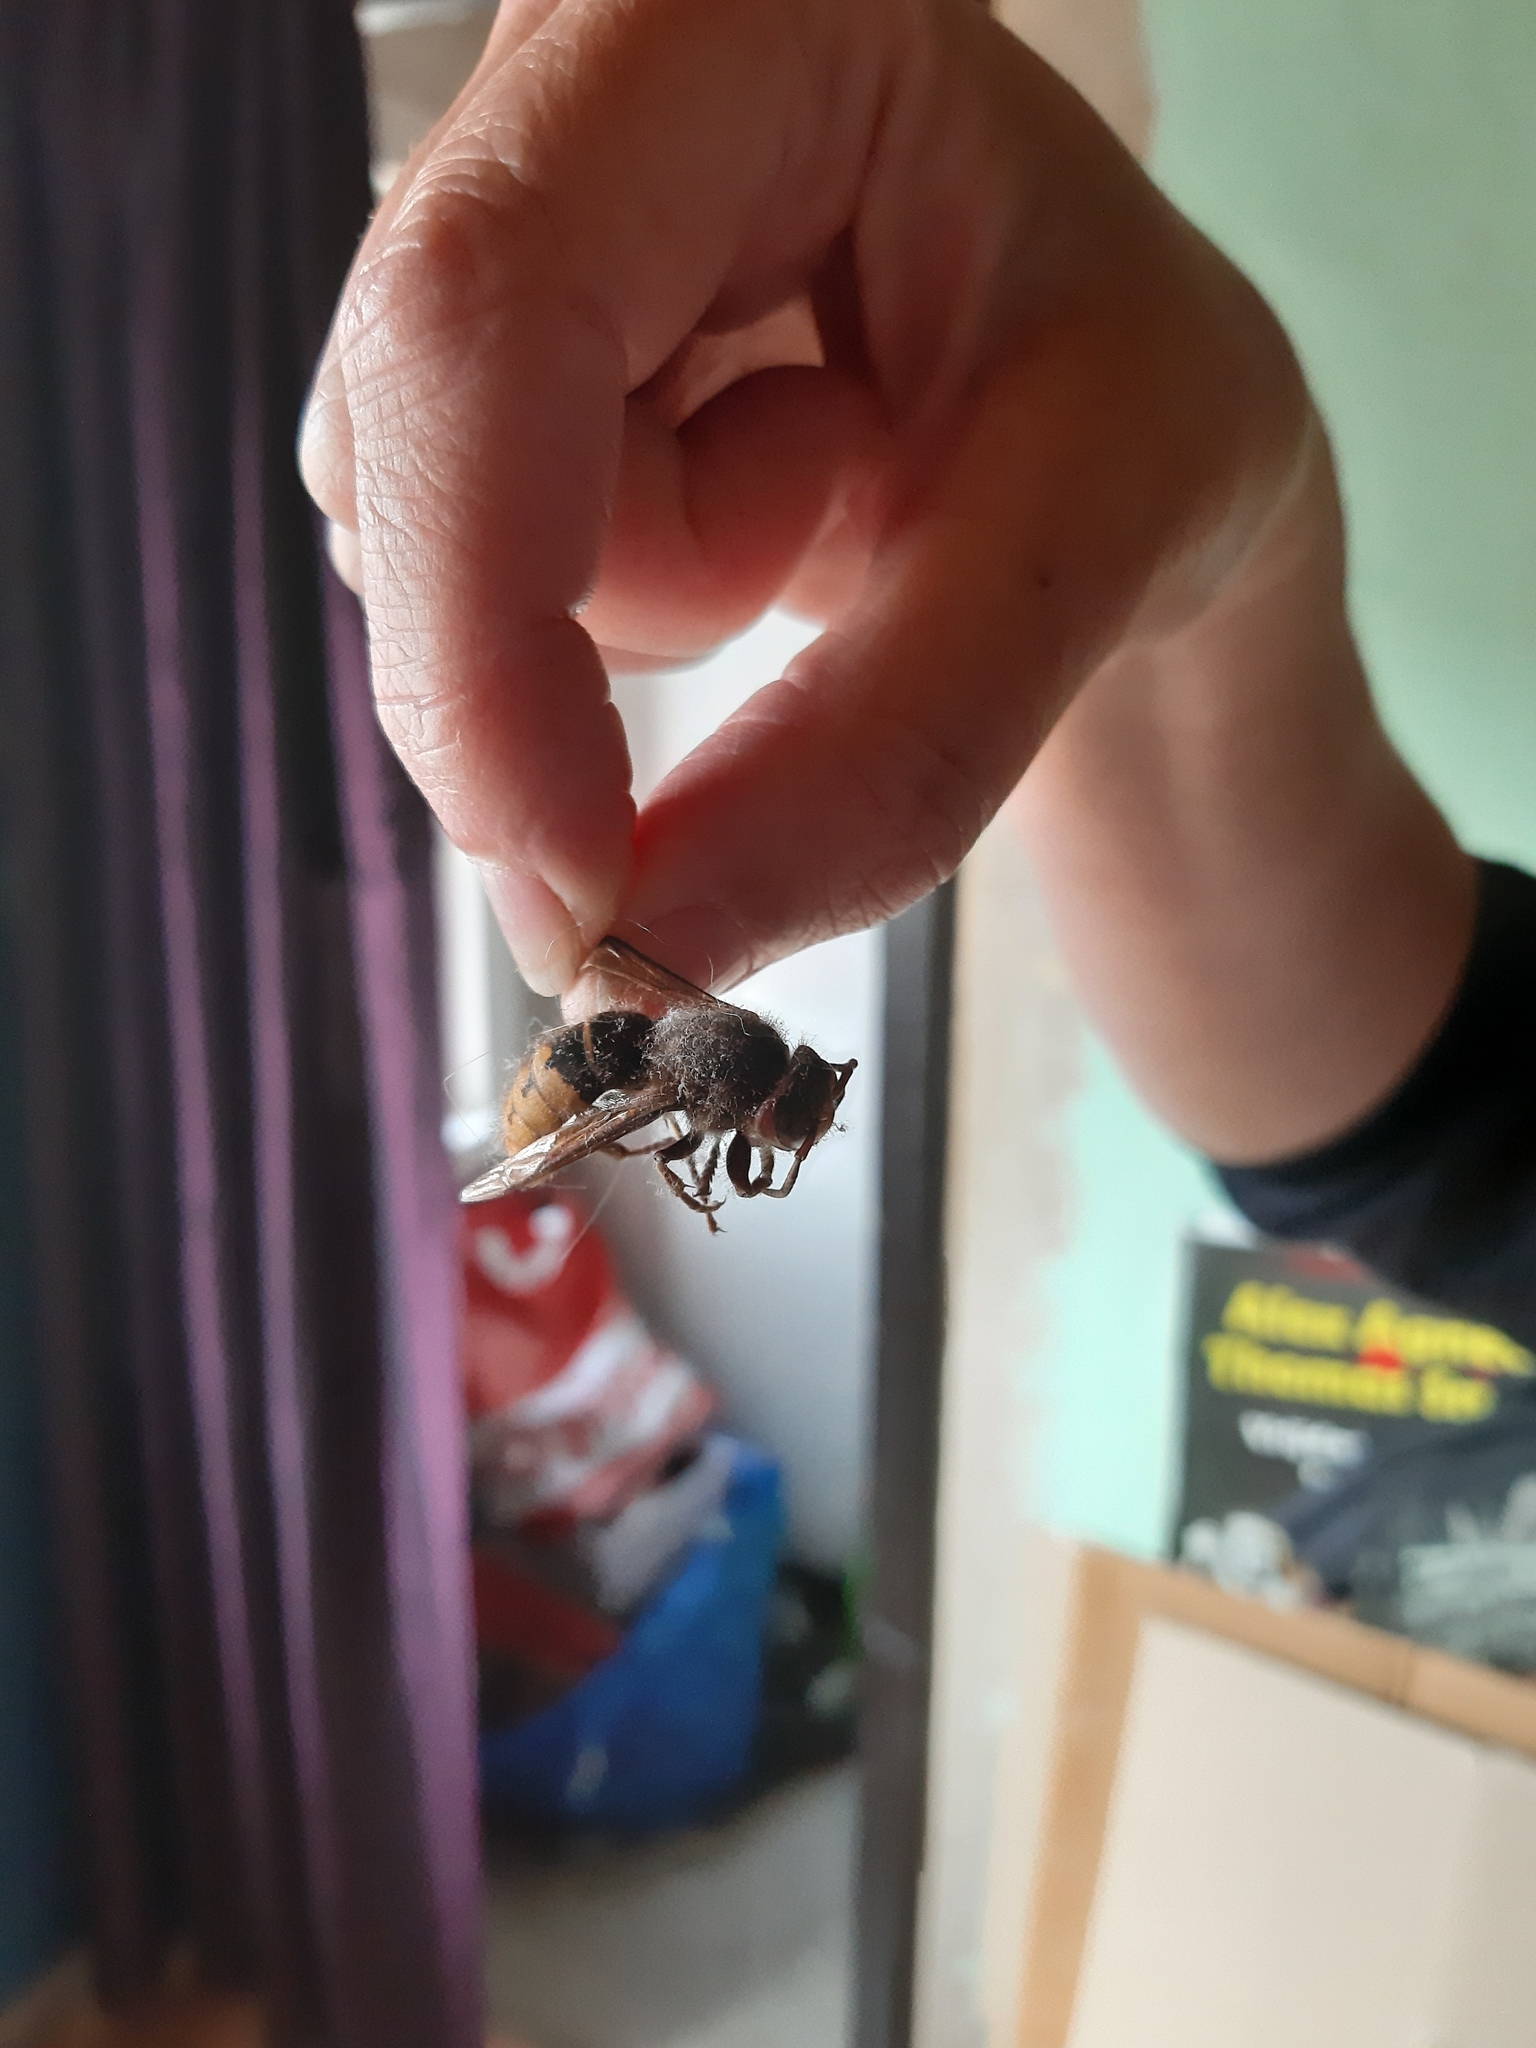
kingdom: Animalia
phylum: Arthropoda
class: Insecta
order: Hymenoptera
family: Vespidae
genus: Vespa
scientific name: Vespa crabro
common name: Hornet
